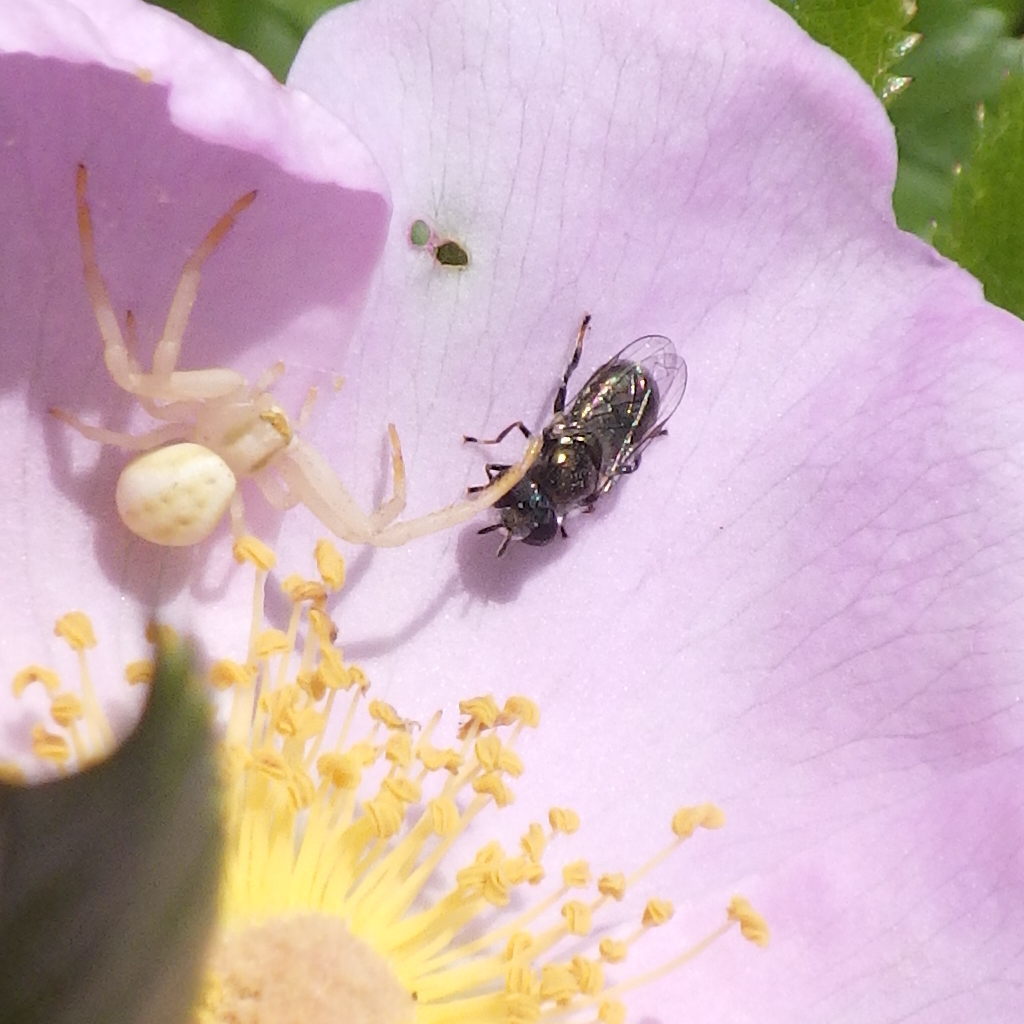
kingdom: Animalia
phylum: Arthropoda
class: Arachnida
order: Araneae
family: Thomisidae
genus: Misumena
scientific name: Misumena vatia
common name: Goldenrod crab spider
